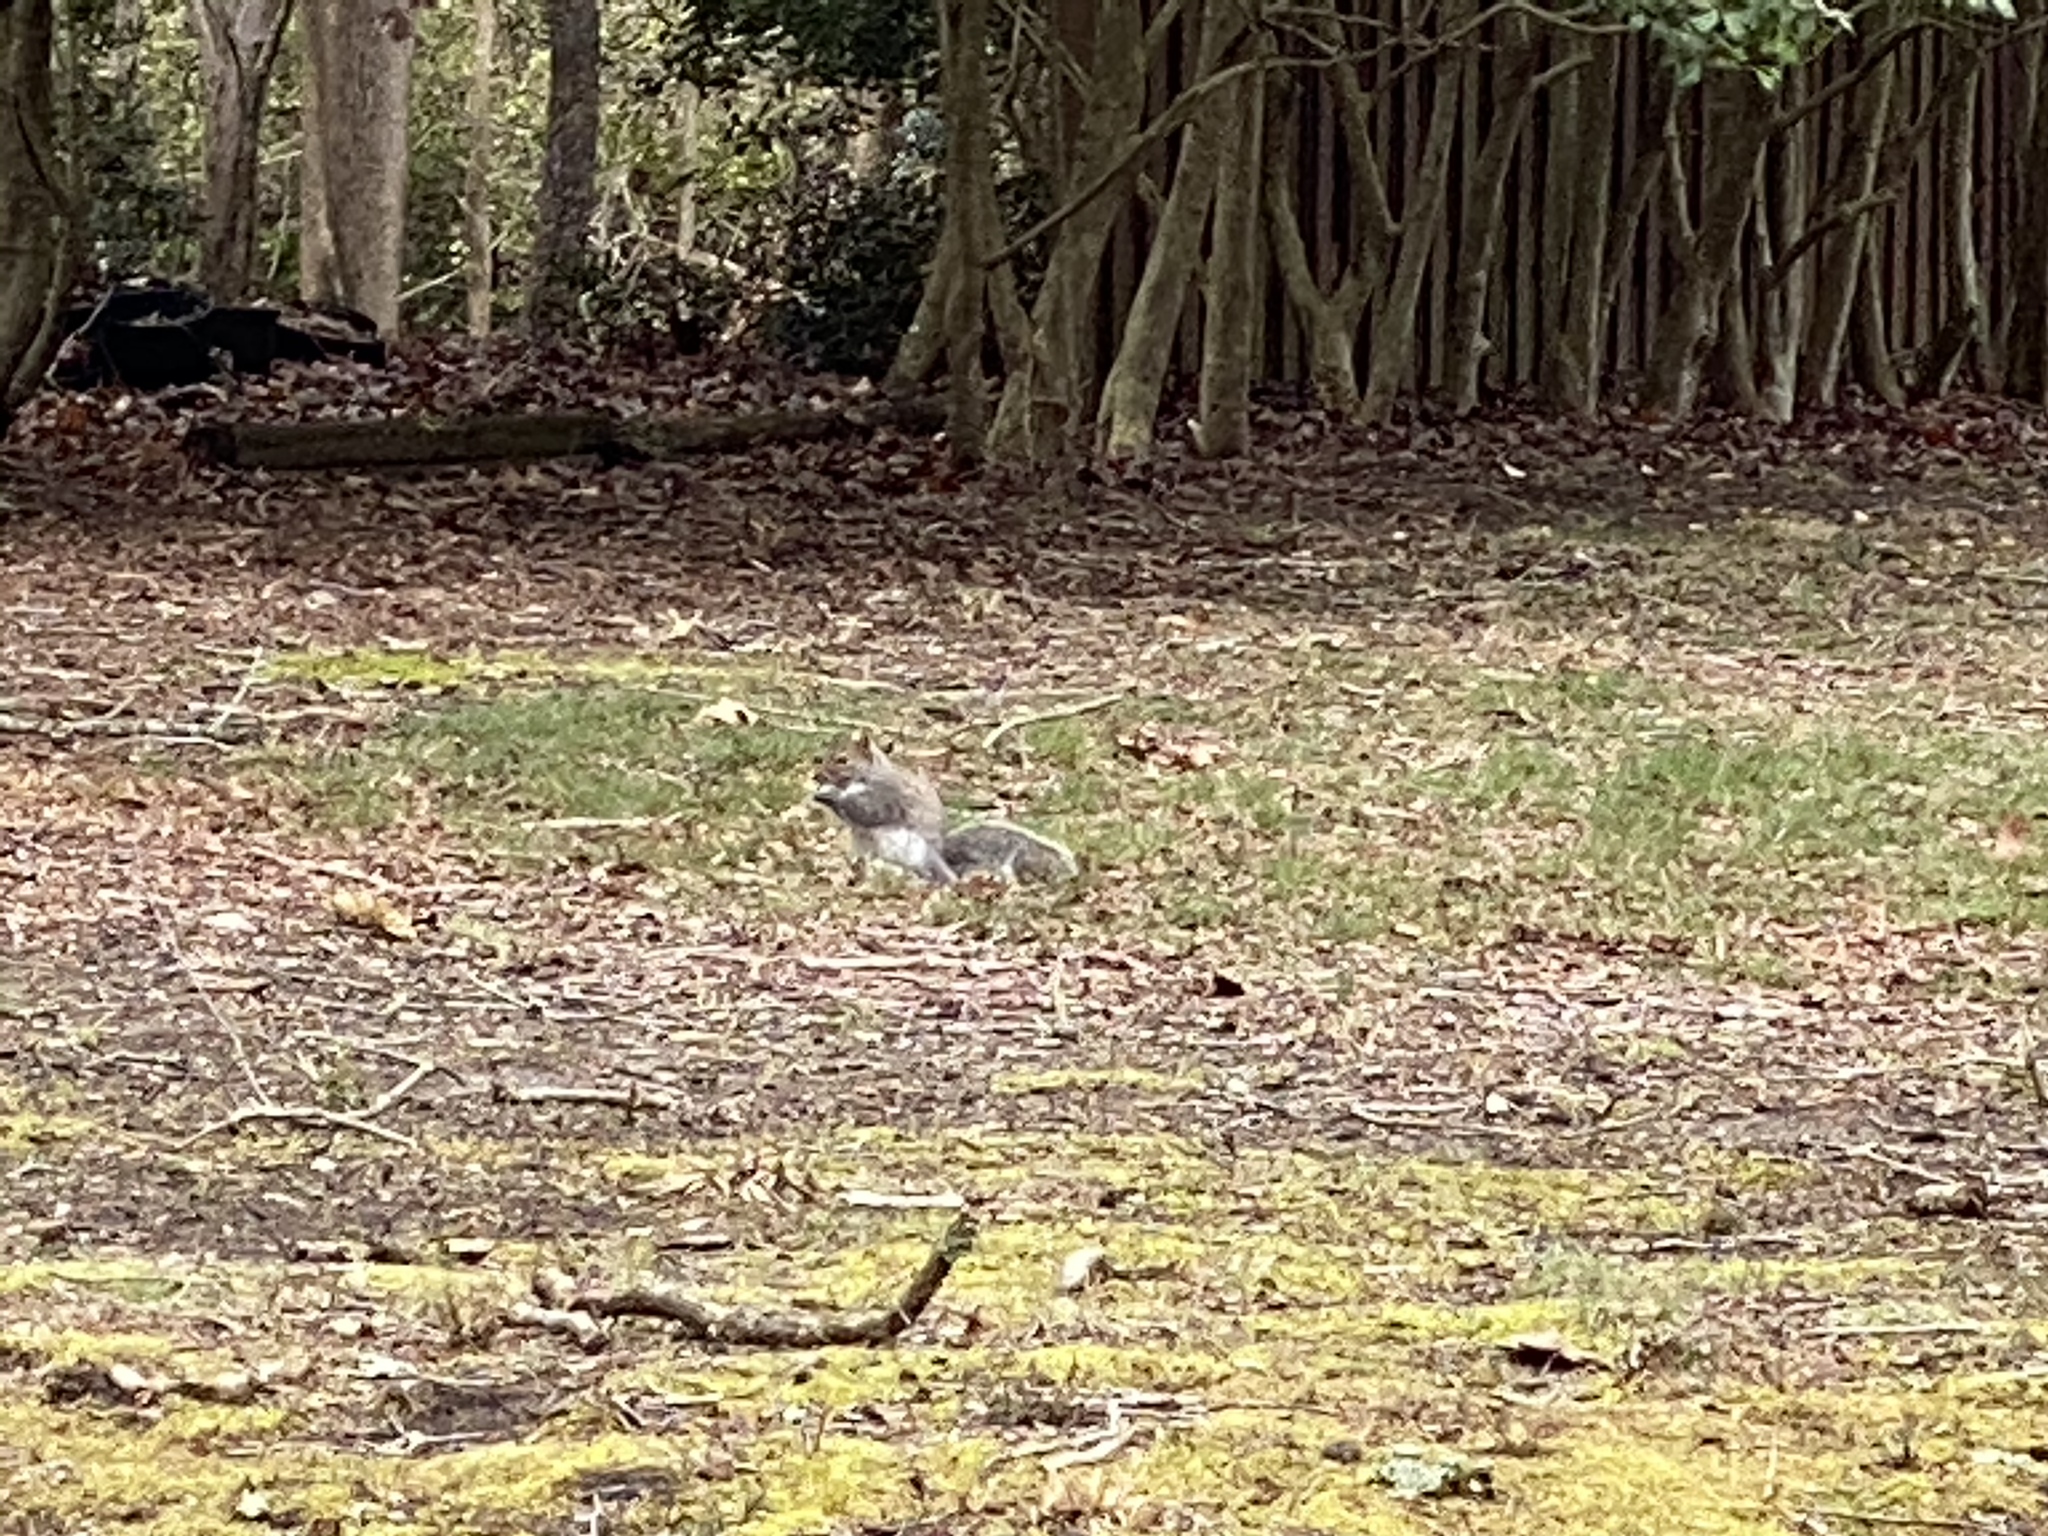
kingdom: Animalia
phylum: Chordata
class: Mammalia
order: Rodentia
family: Sciuridae
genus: Sciurus
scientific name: Sciurus carolinensis
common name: Eastern gray squirrel
